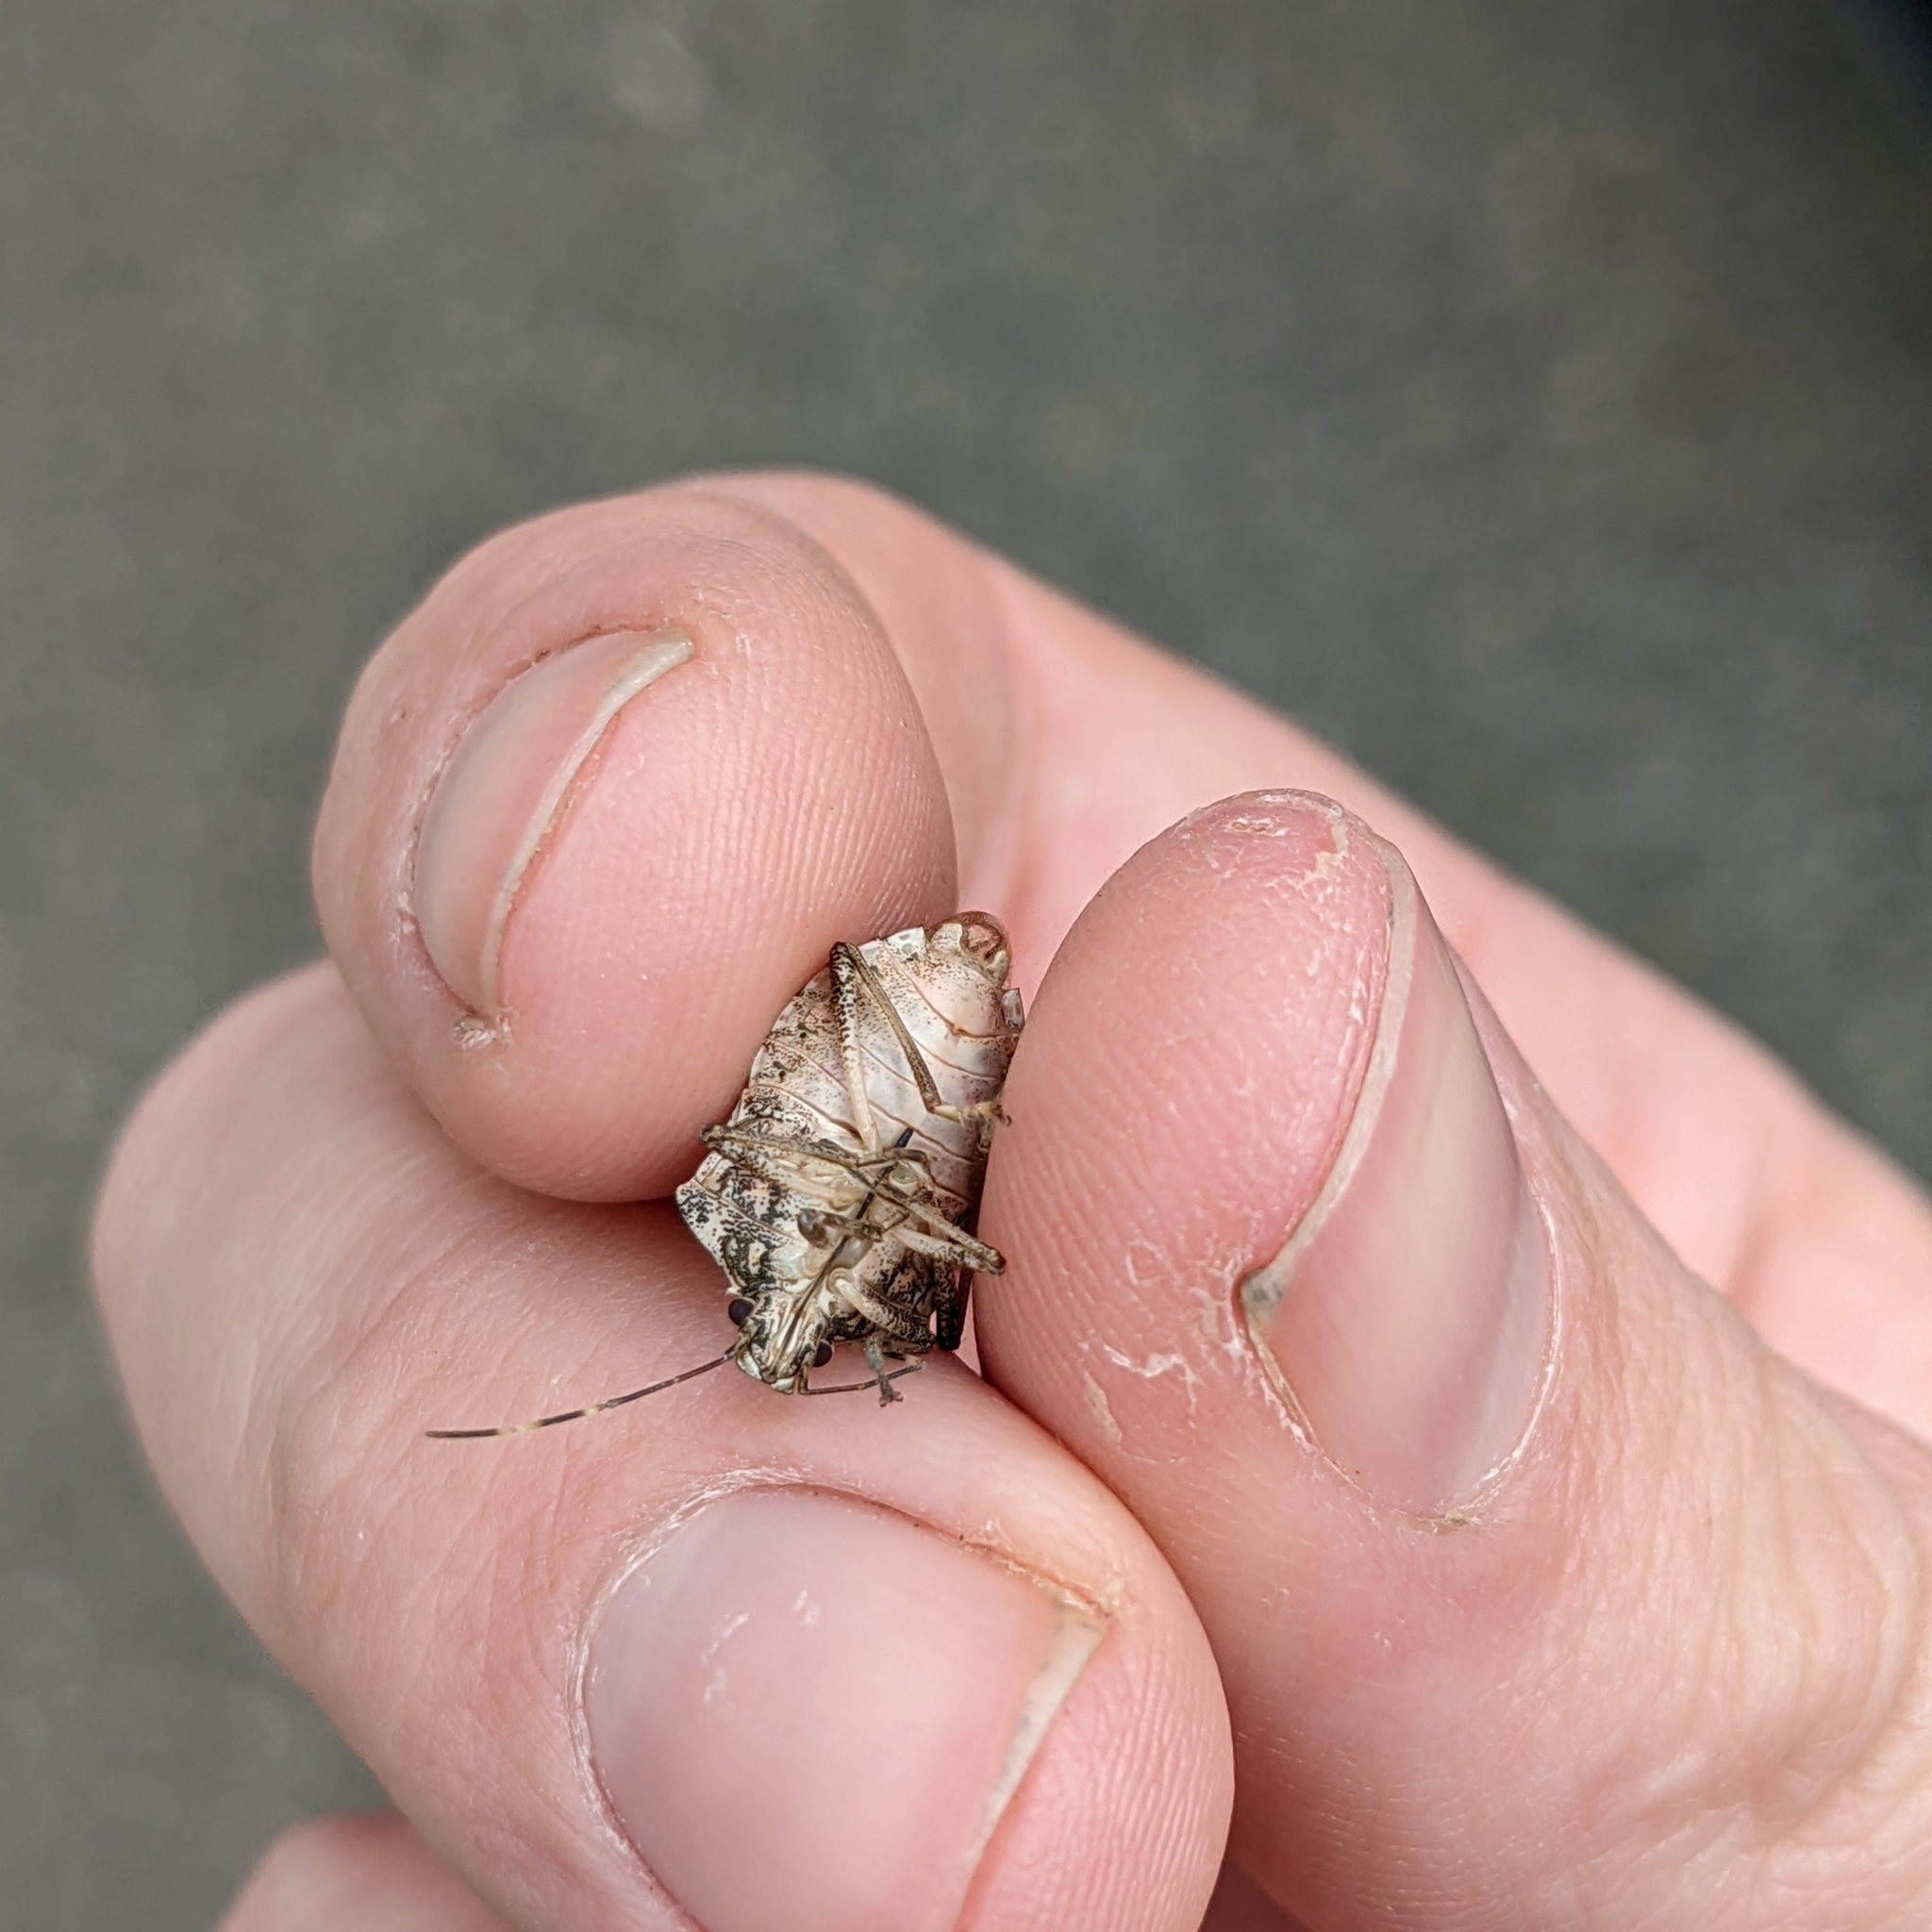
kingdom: Animalia
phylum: Arthropoda
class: Insecta
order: Hemiptera
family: Pentatomidae
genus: Halyomorpha
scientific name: Halyomorpha halys
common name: Brown marmorated stink bug
